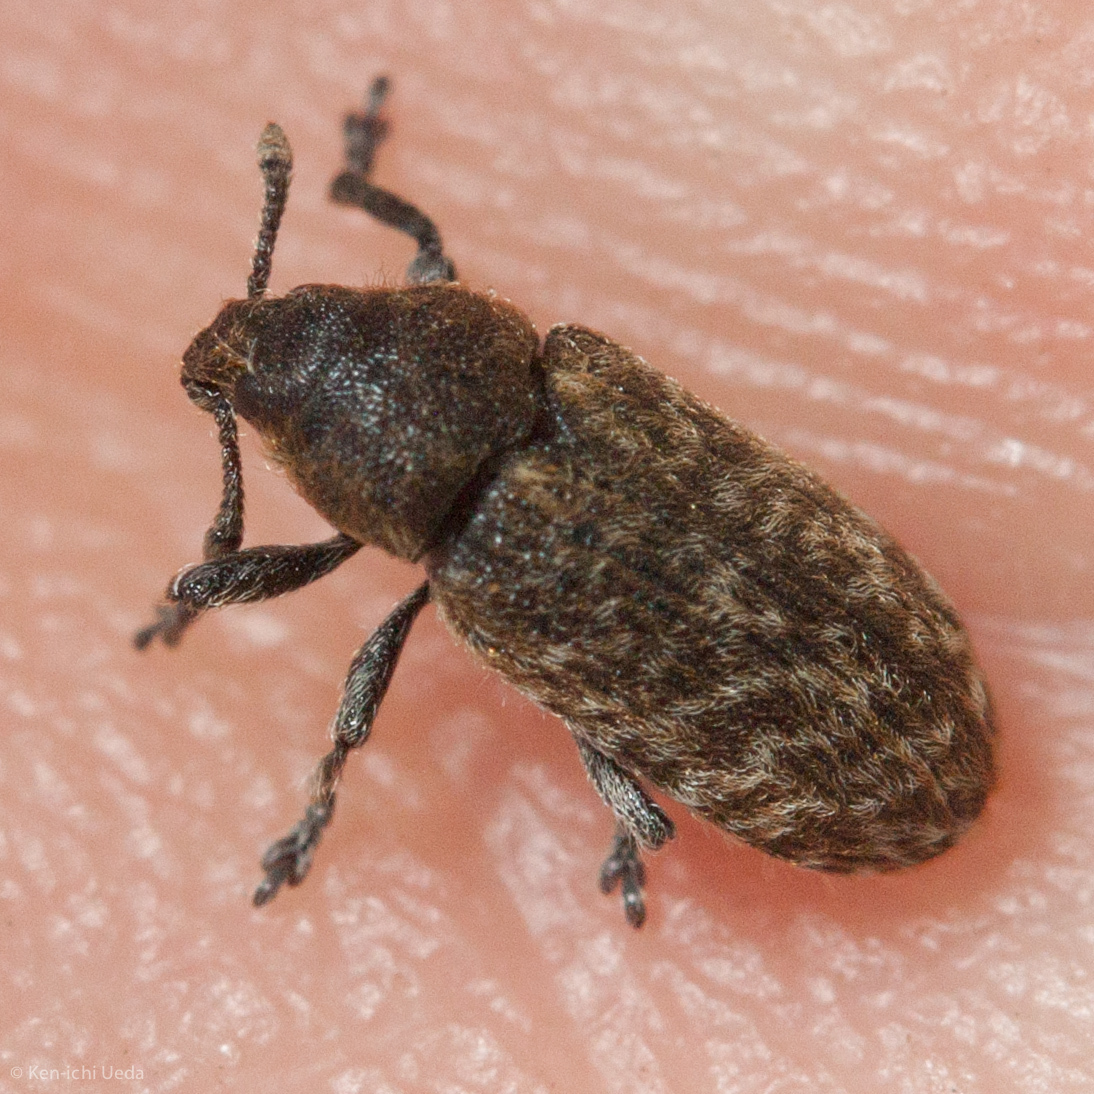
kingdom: Animalia
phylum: Arthropoda
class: Insecta
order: Coleoptera
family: Curculionidae
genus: Rhinocyllus
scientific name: Rhinocyllus conicus
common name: Weevil
